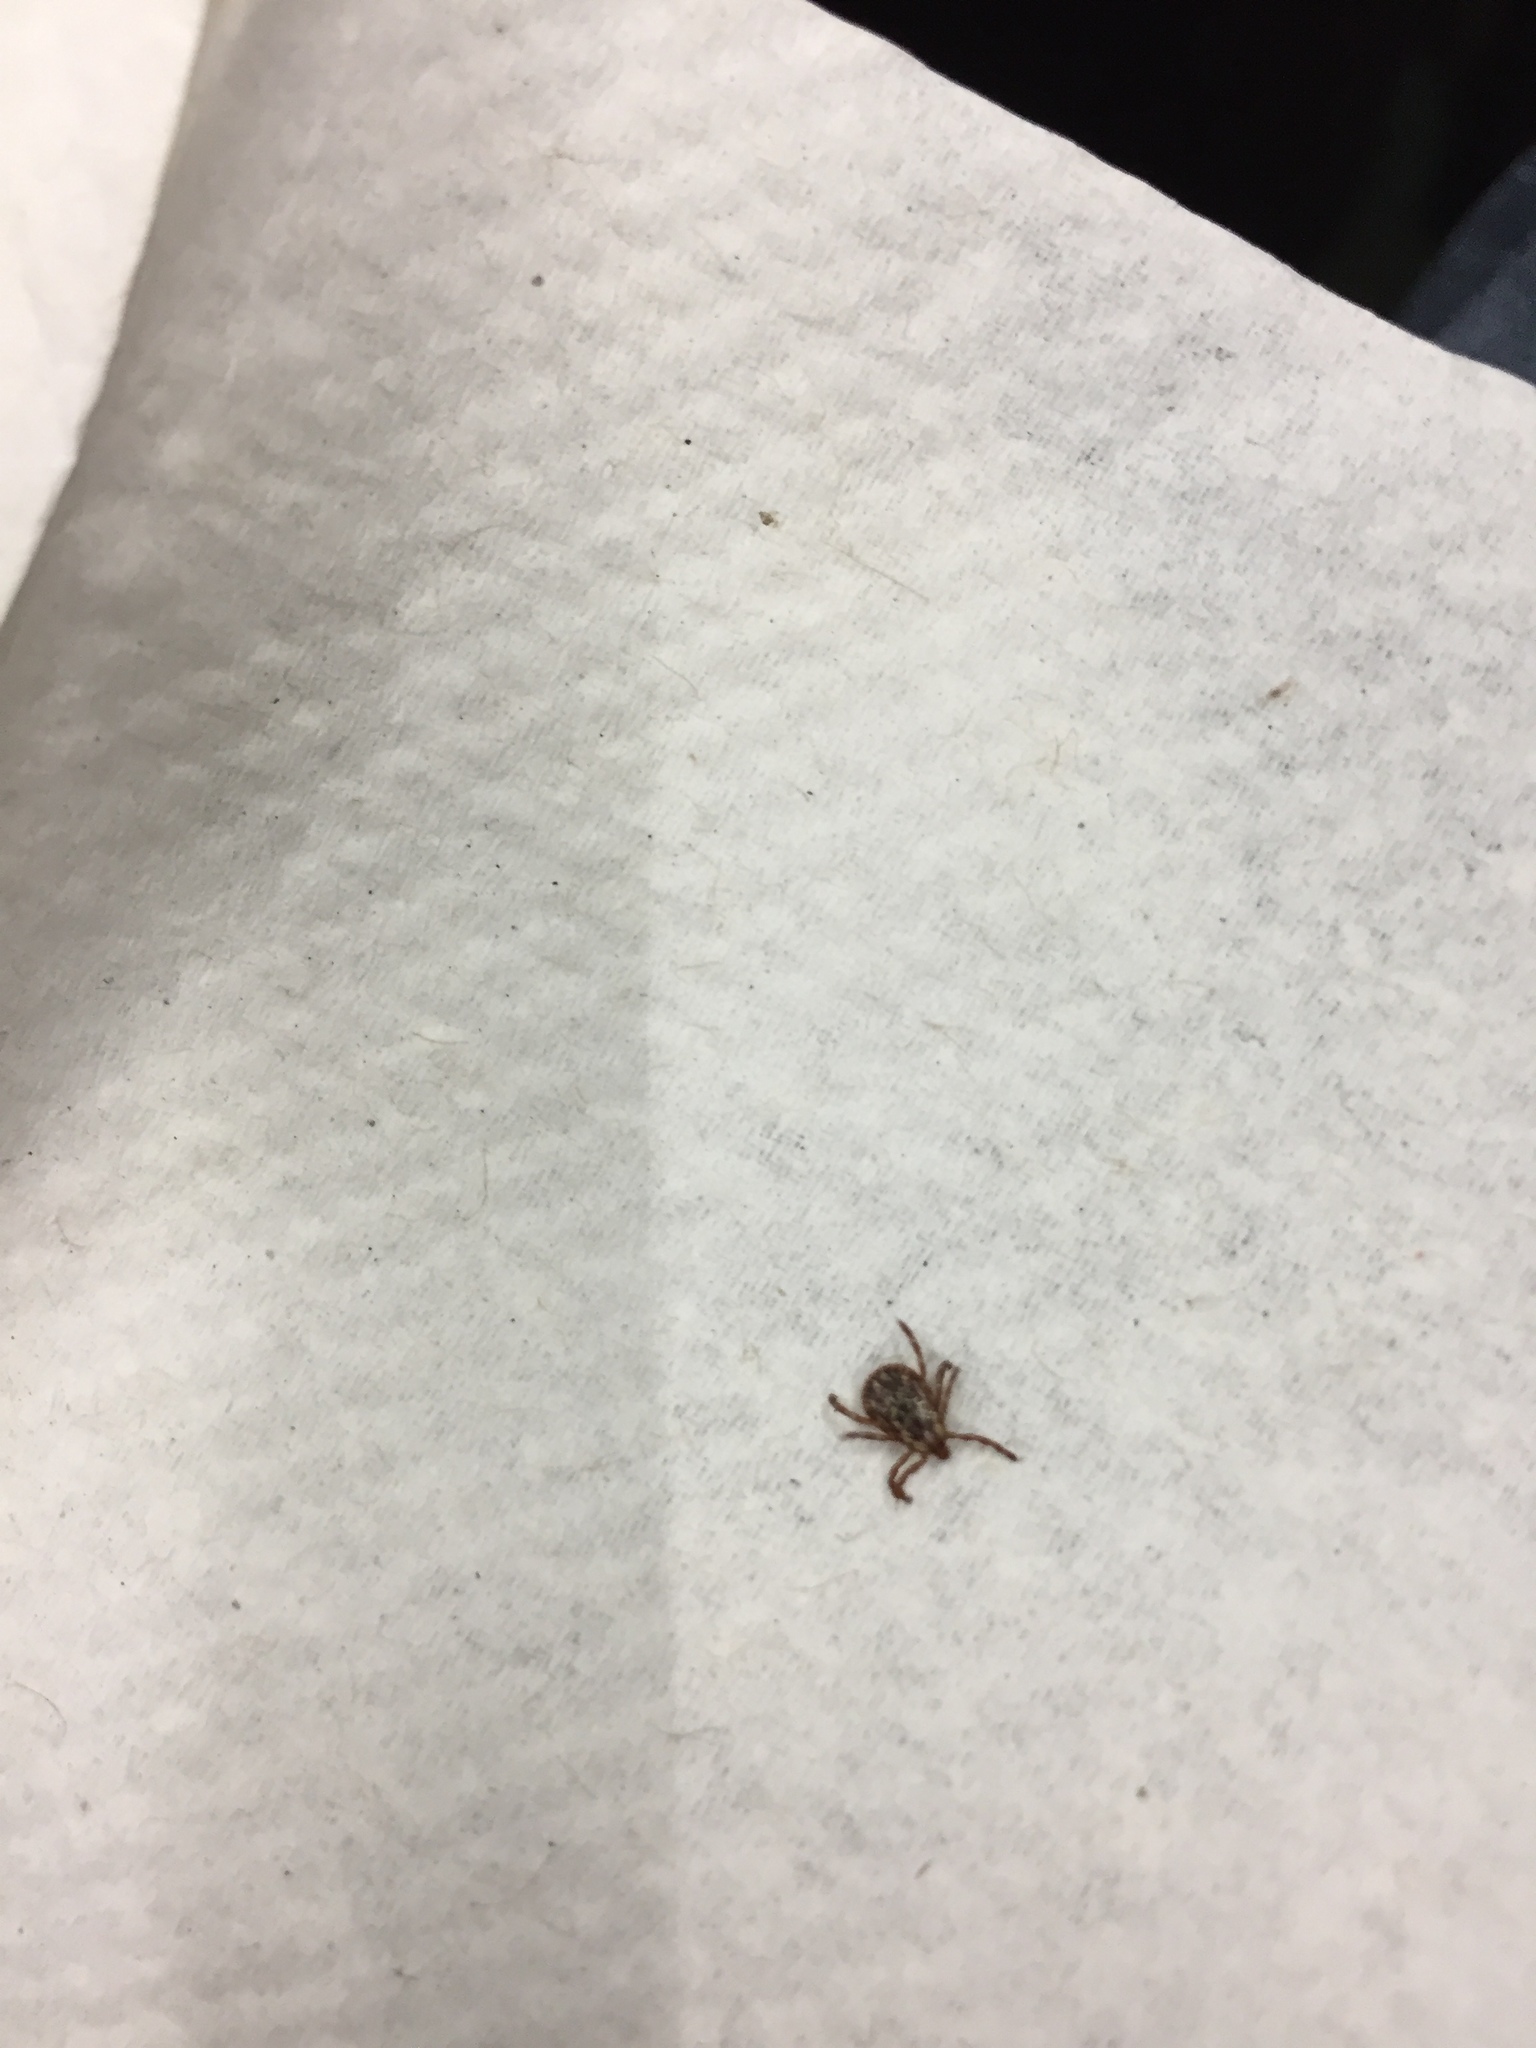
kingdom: Animalia
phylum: Arthropoda
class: Arachnida
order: Ixodida
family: Ixodidae
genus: Dermacentor
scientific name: Dermacentor variabilis
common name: American dog tick
